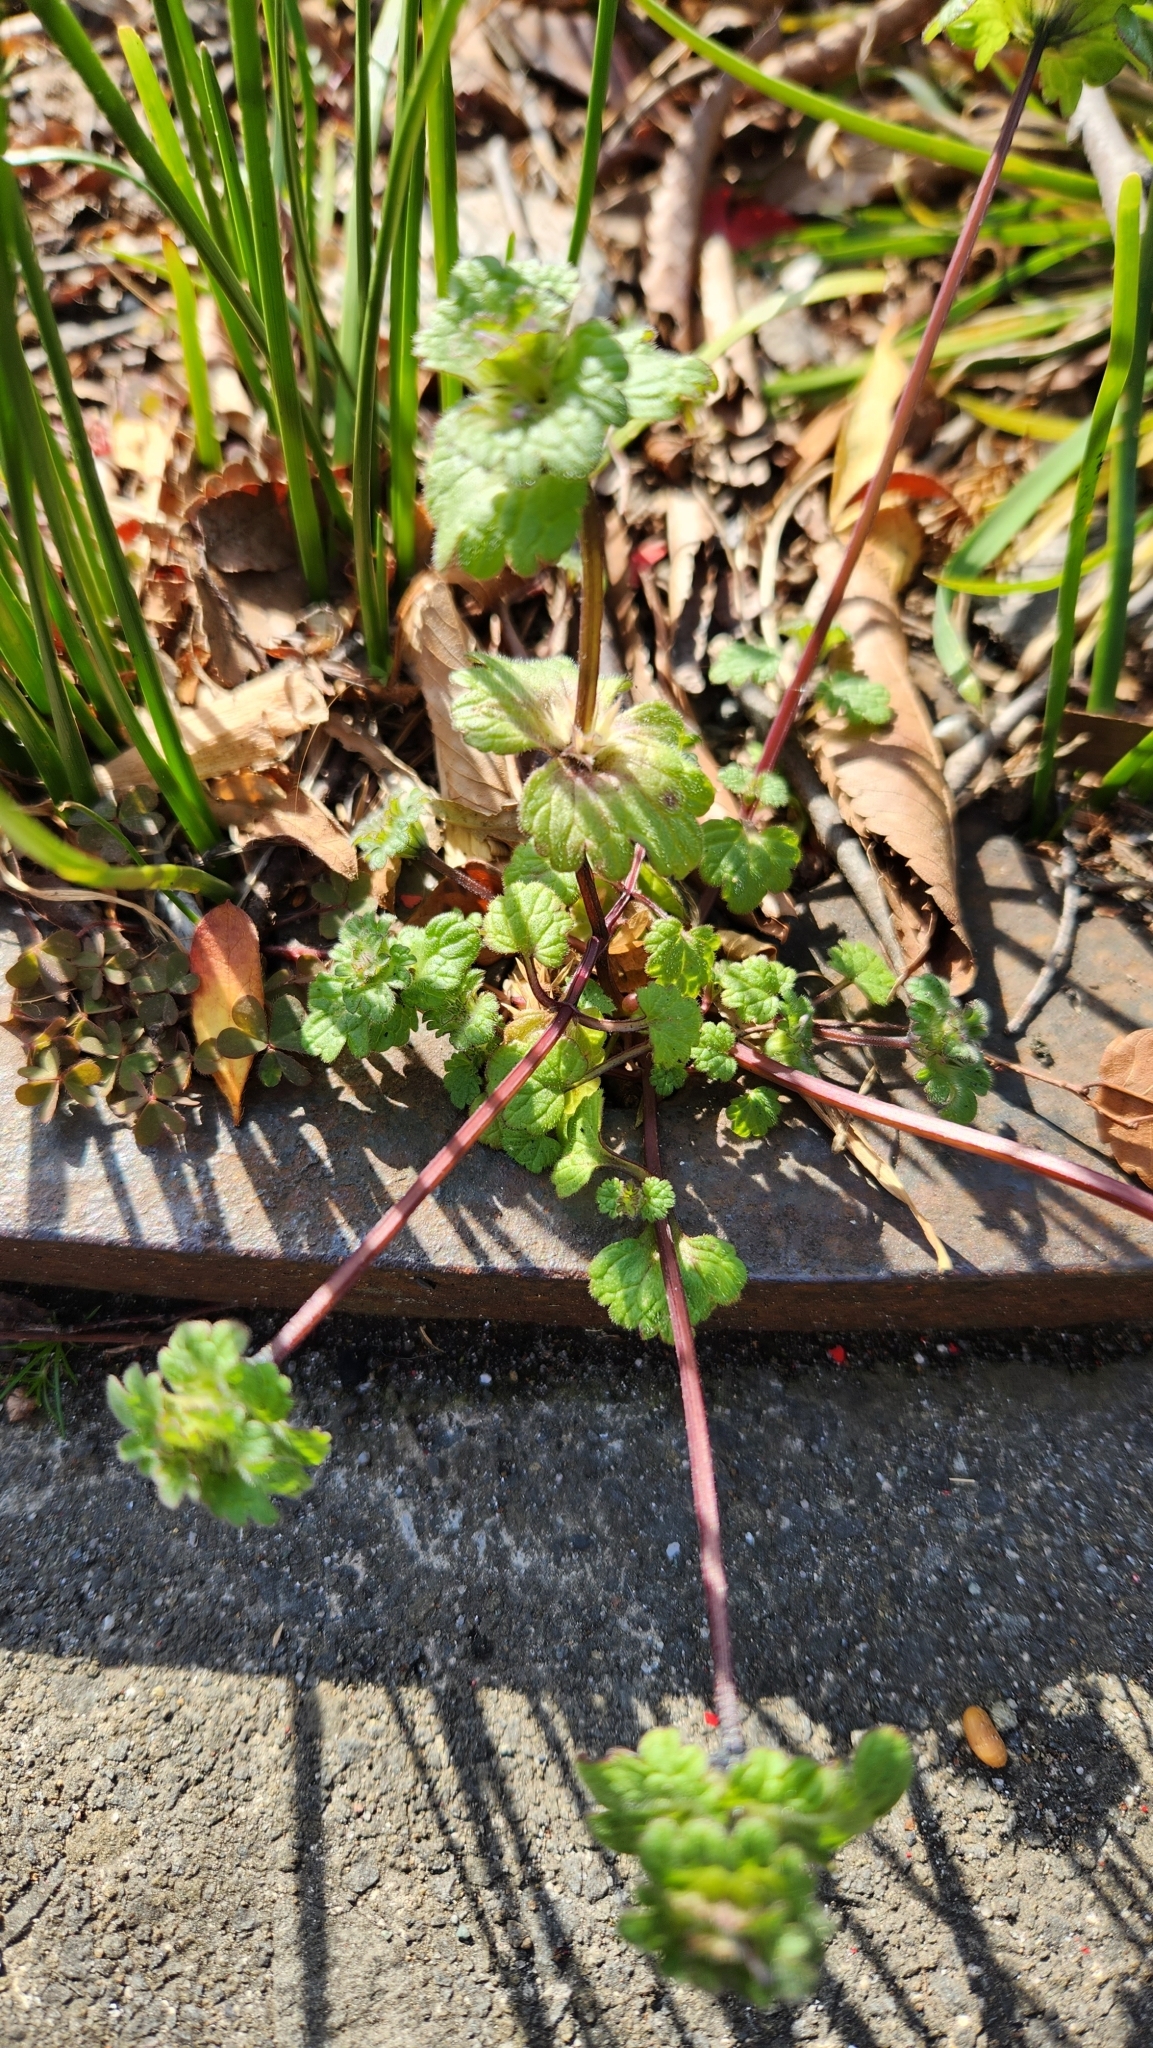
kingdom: Plantae
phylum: Tracheophyta
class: Magnoliopsida
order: Lamiales
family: Lamiaceae
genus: Lamium
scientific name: Lamium amplexicaule
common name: Henbit dead-nettle
